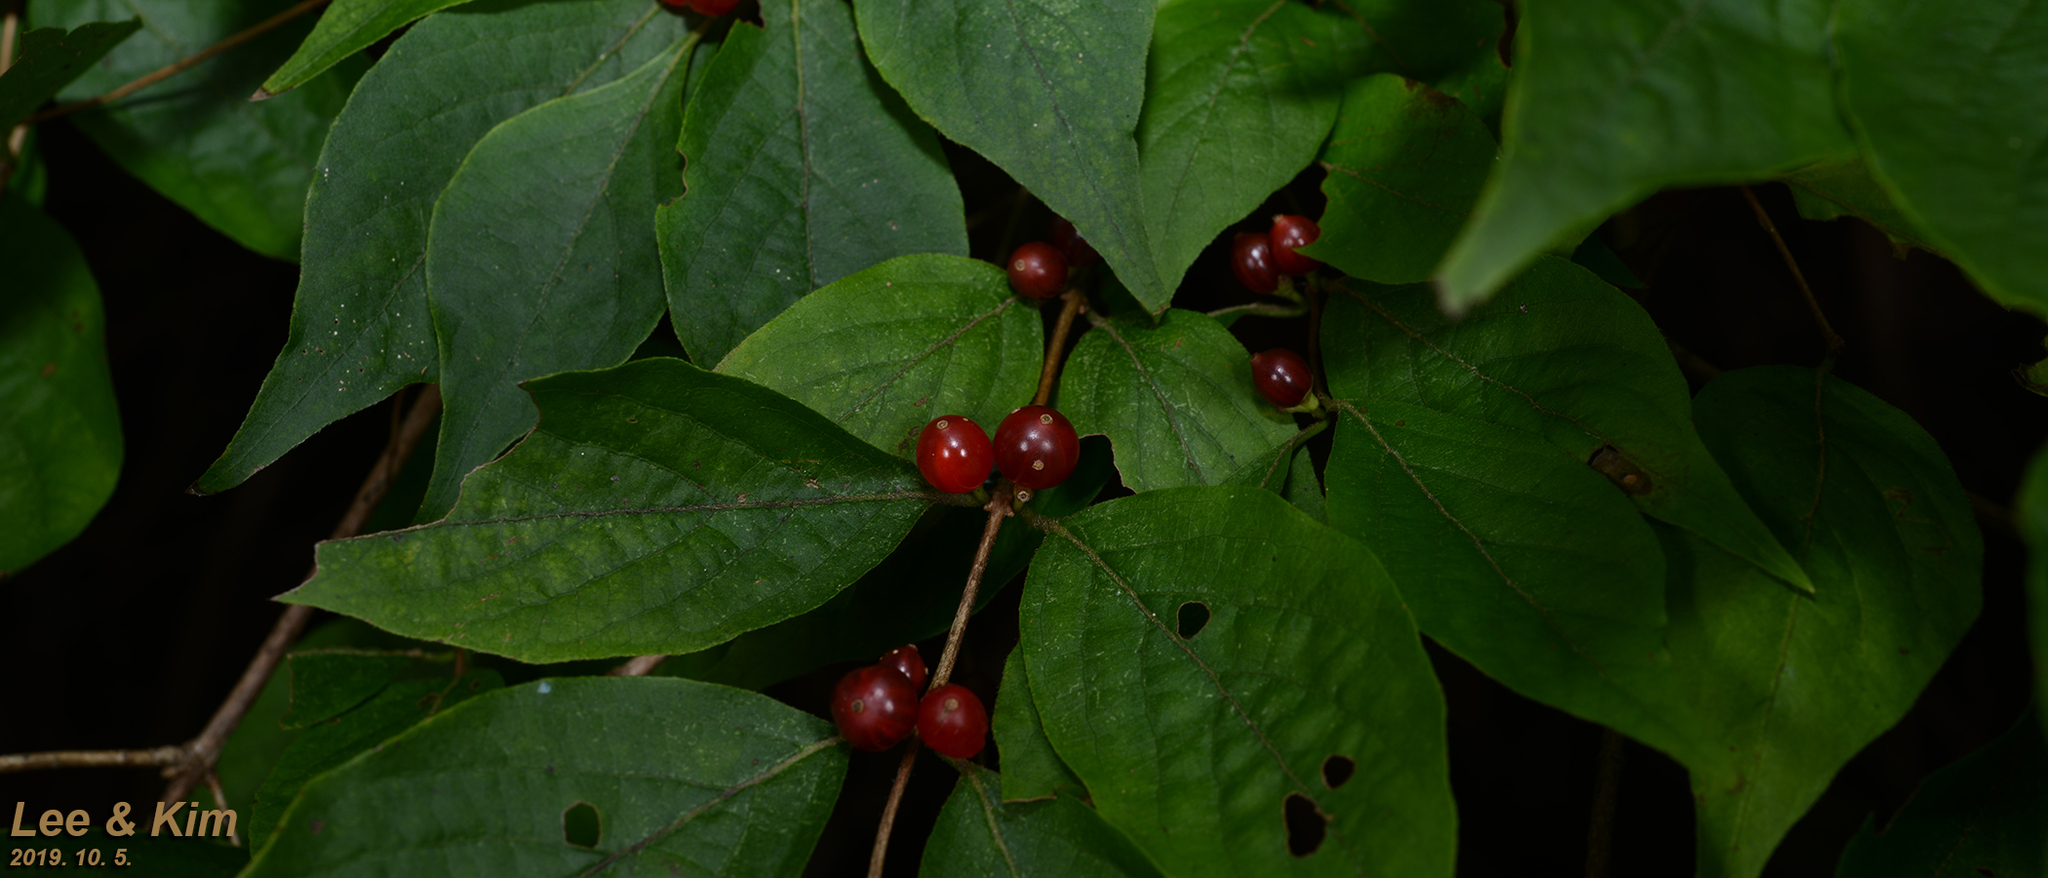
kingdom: Plantae
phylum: Tracheophyta
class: Magnoliopsida
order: Dipsacales
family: Caprifoliaceae
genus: Lonicera
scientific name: Lonicera maackii
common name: Amur honeysuckle
